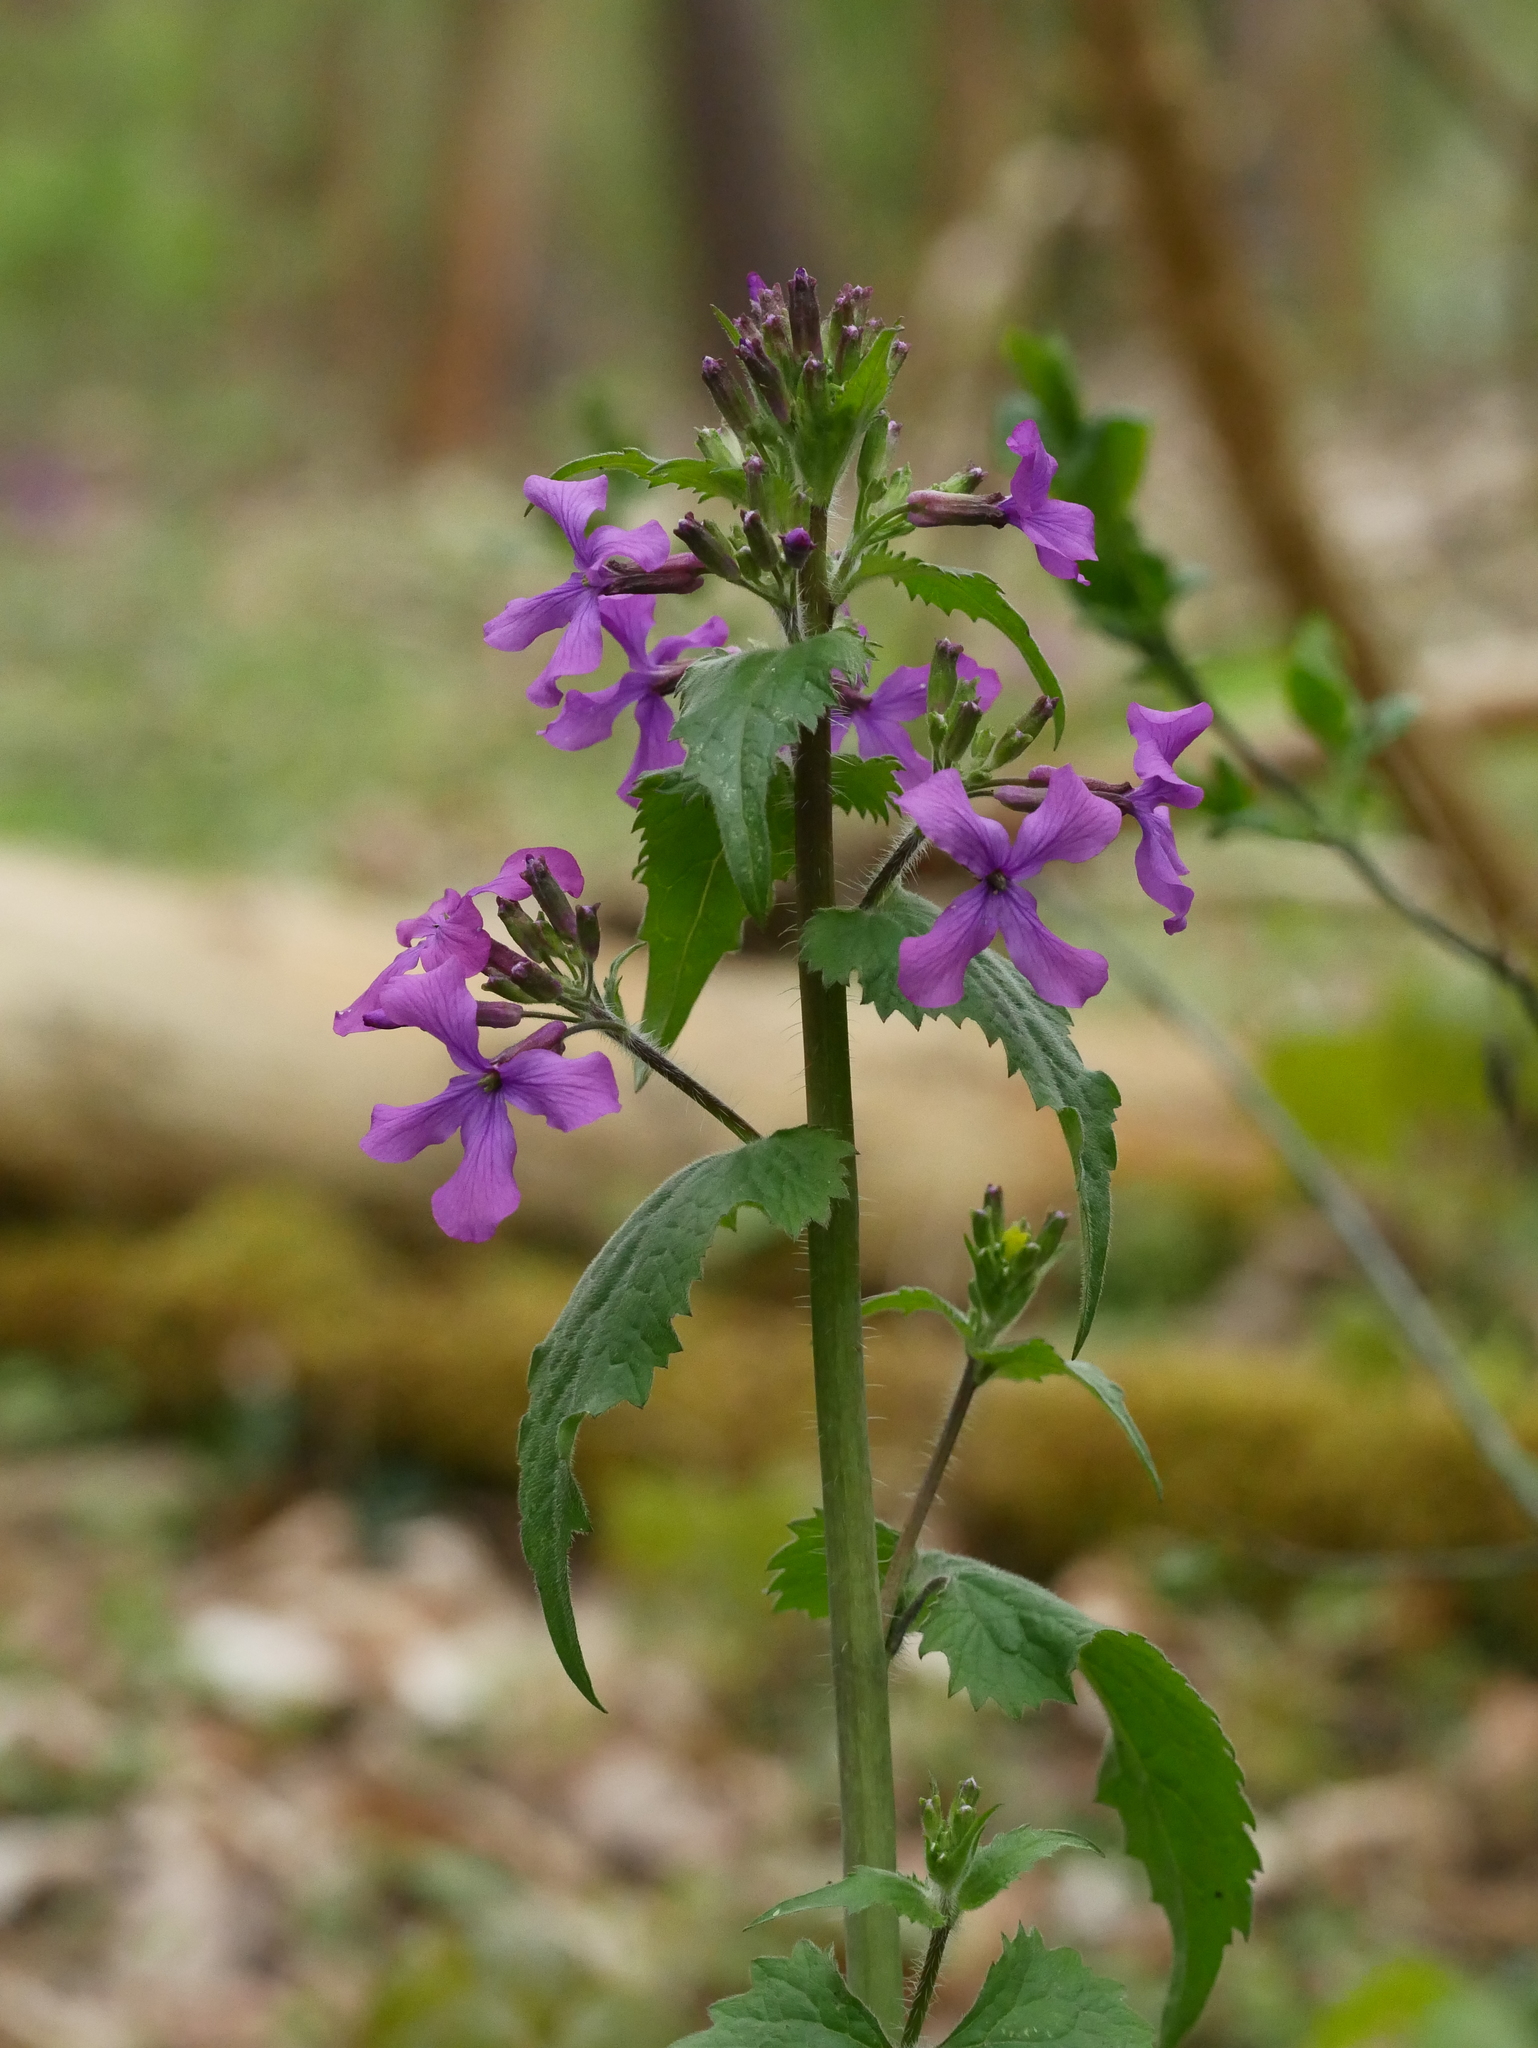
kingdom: Plantae
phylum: Tracheophyta
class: Magnoliopsida
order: Brassicales
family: Brassicaceae
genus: Lunaria
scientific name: Lunaria annua
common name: Honesty
